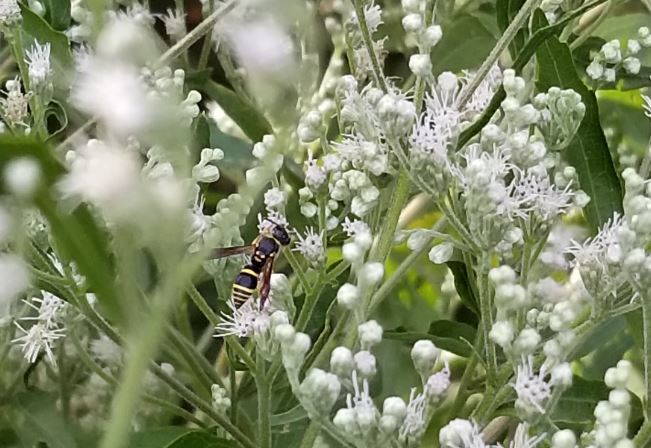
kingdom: Animalia
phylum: Arthropoda
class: Insecta
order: Hymenoptera
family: Vespidae
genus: Ancistrocerus
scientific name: Ancistrocerus adiabatus
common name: Bramble mason wasp
